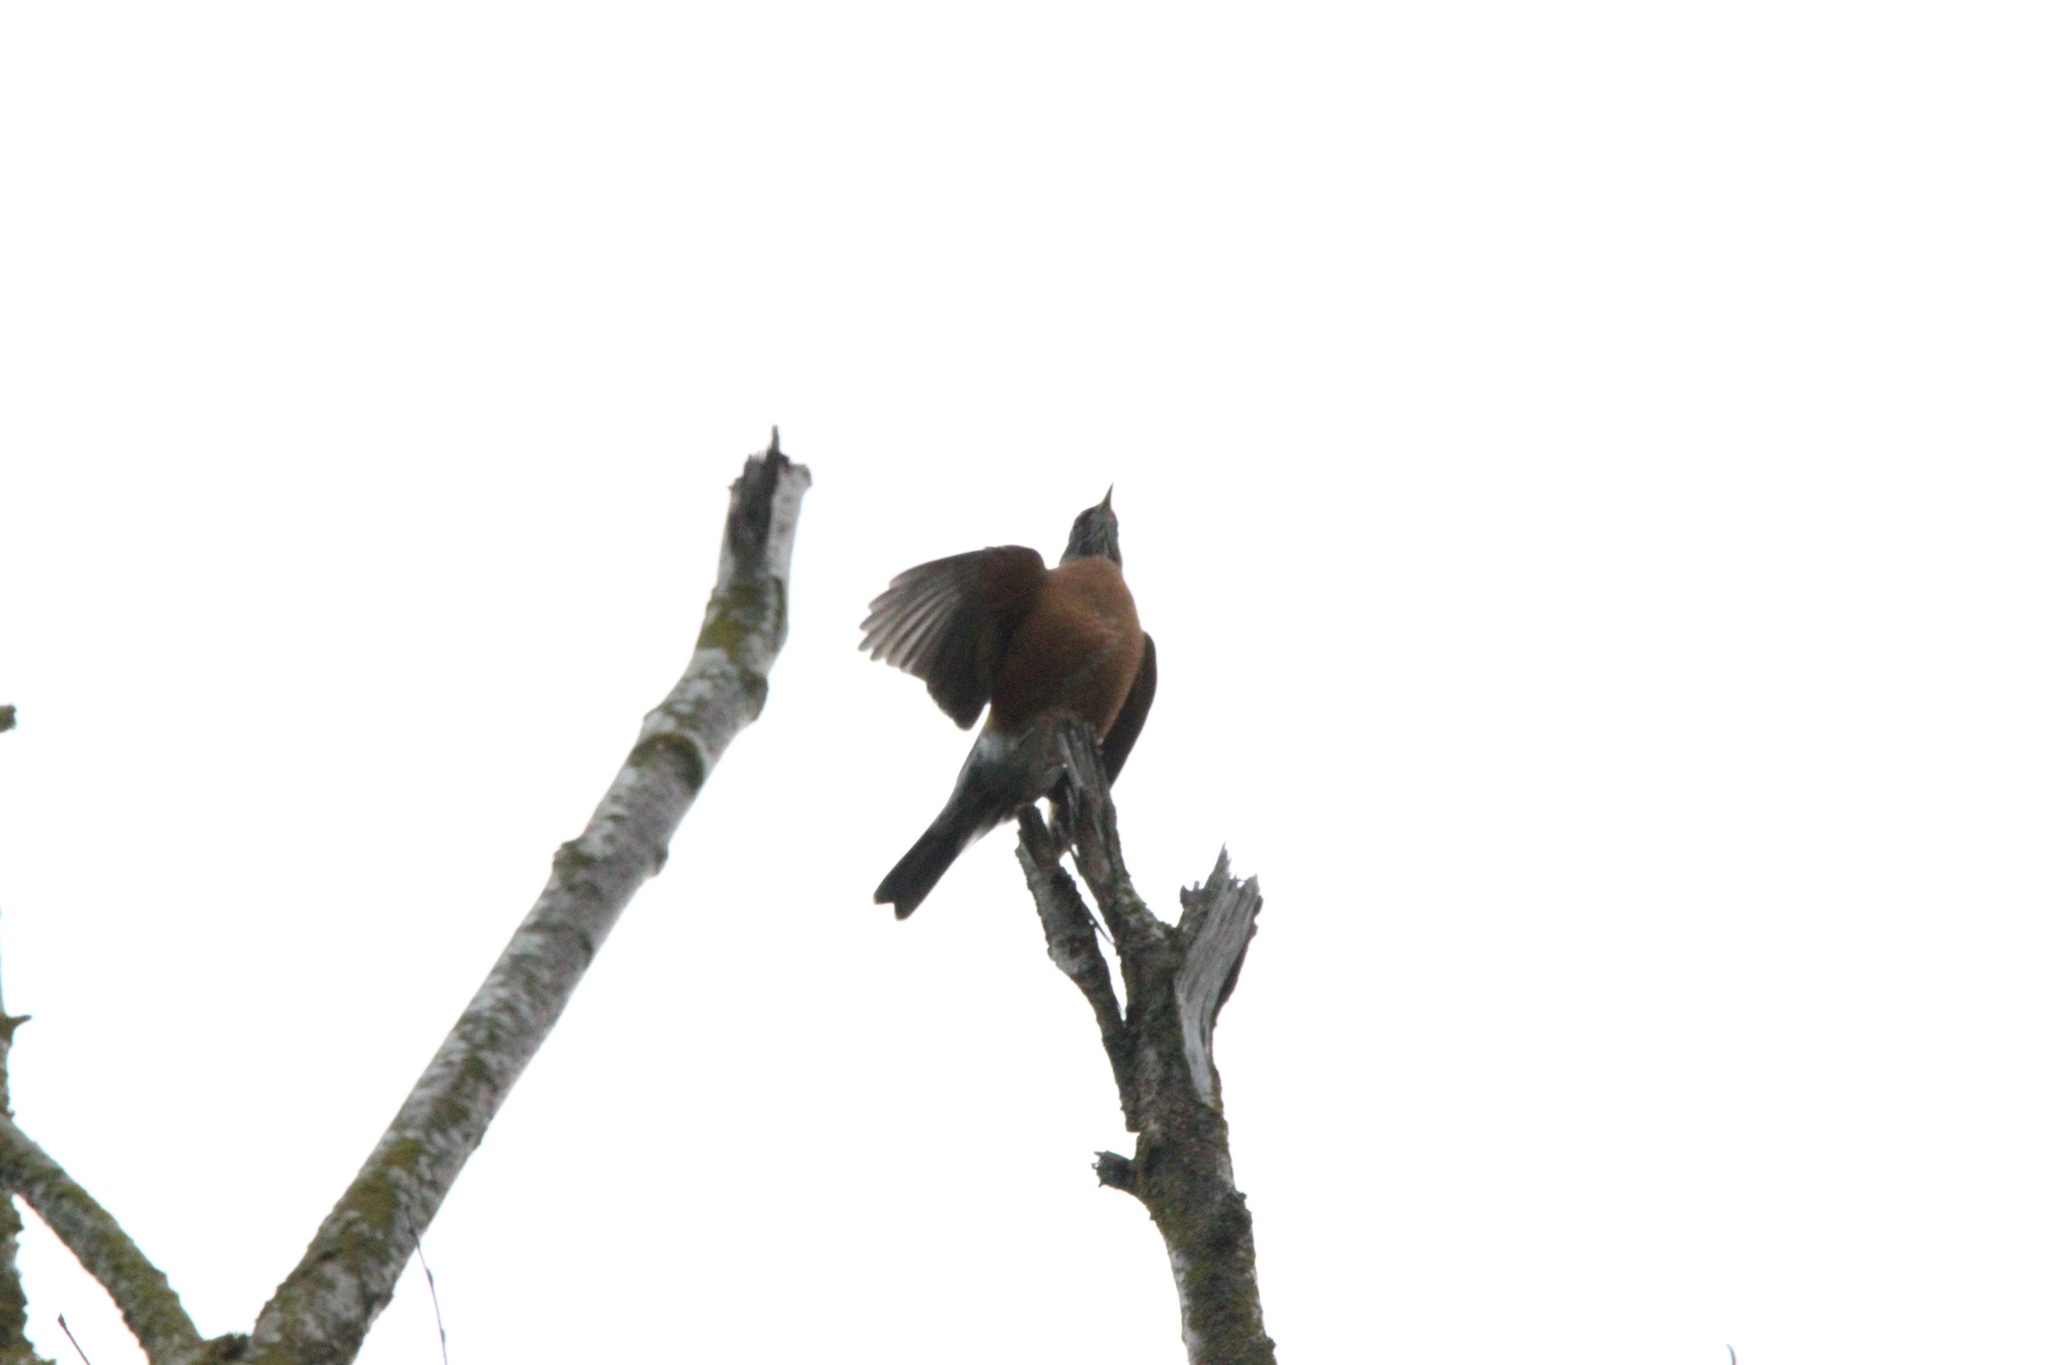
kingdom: Animalia
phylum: Chordata
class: Aves
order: Passeriformes
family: Turdidae
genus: Turdus
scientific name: Turdus migratorius
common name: American robin
